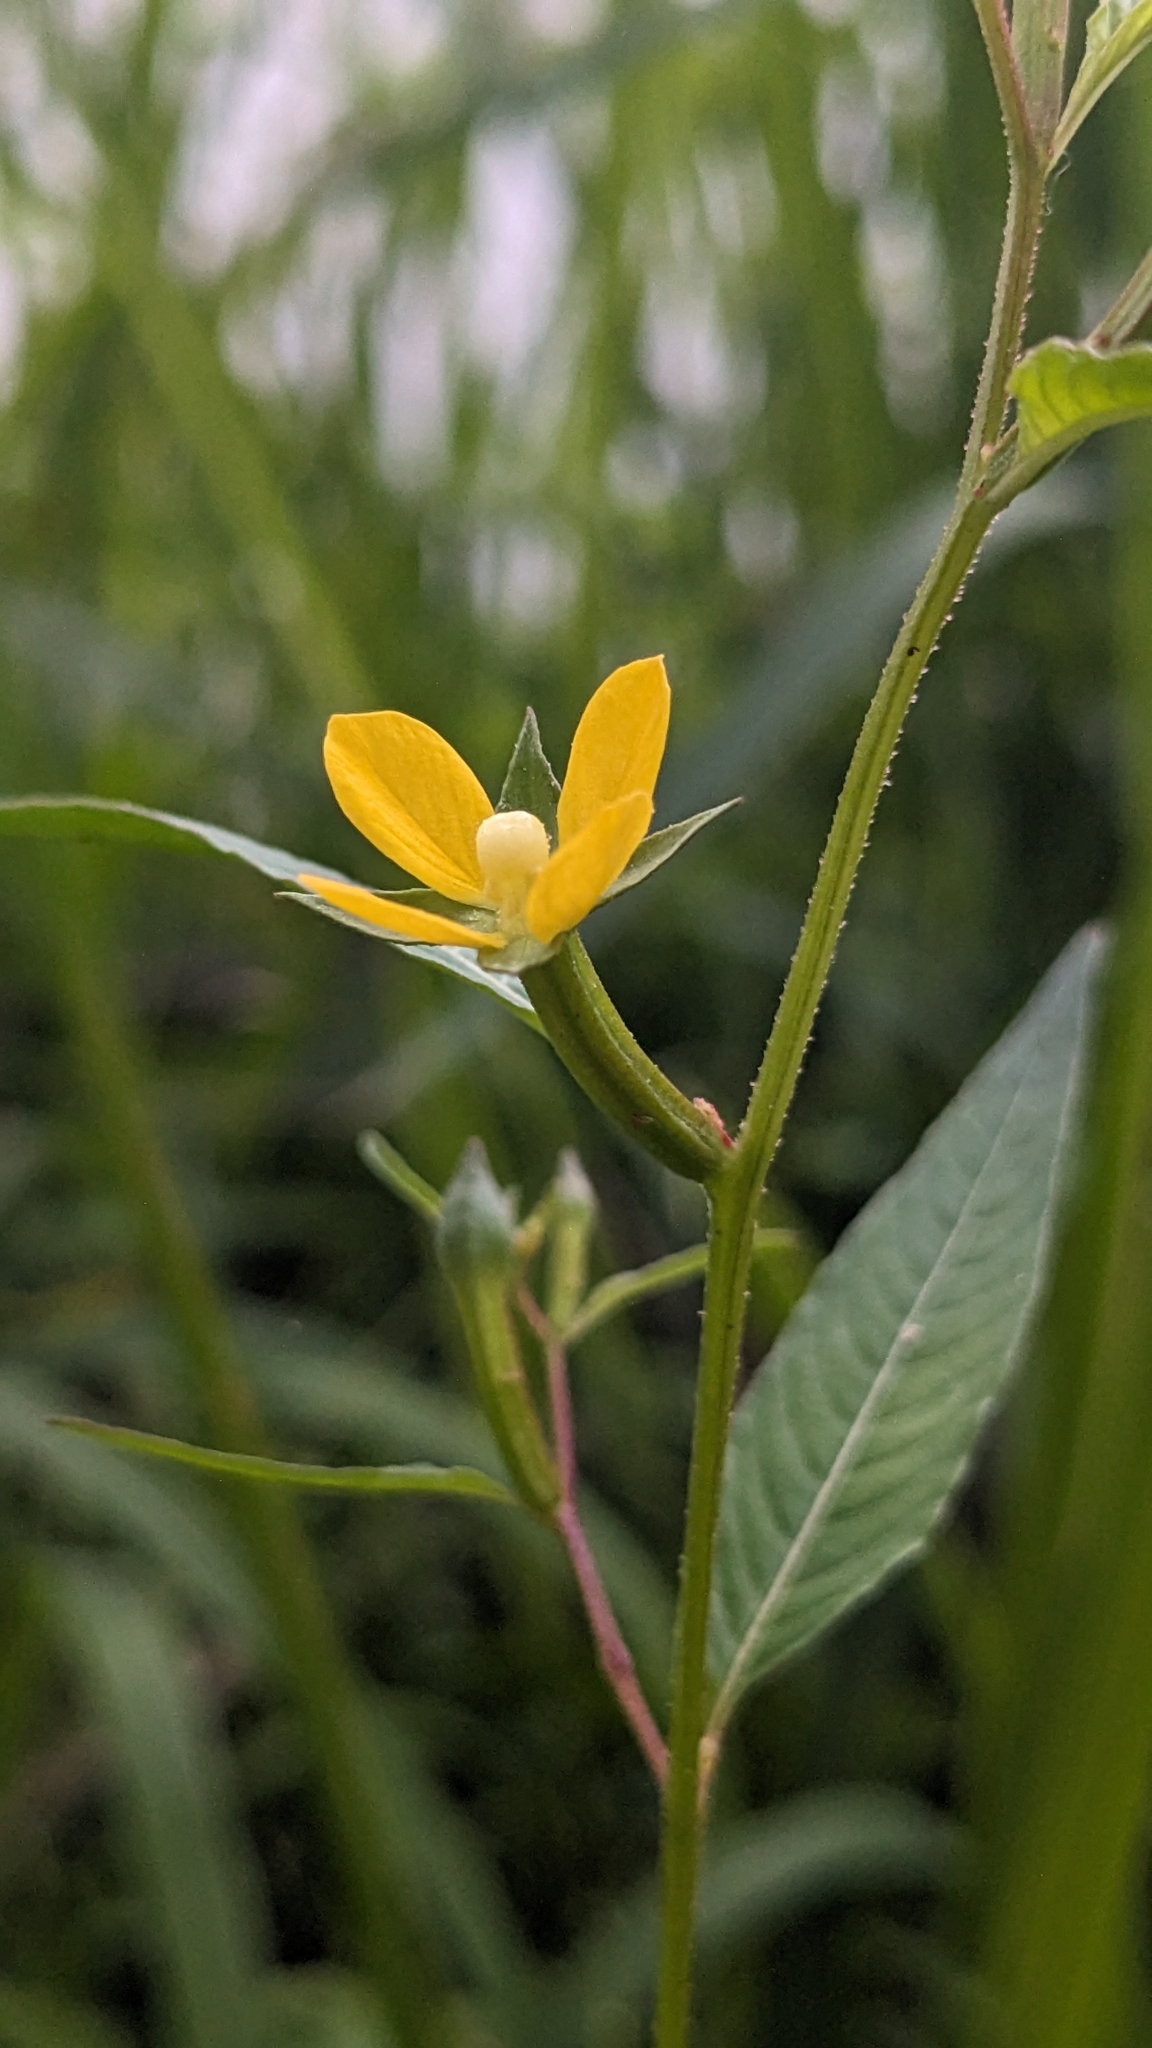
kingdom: Plantae
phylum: Tracheophyta
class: Magnoliopsida
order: Myrtales
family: Onagraceae
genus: Ludwigia
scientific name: Ludwigia erecta
